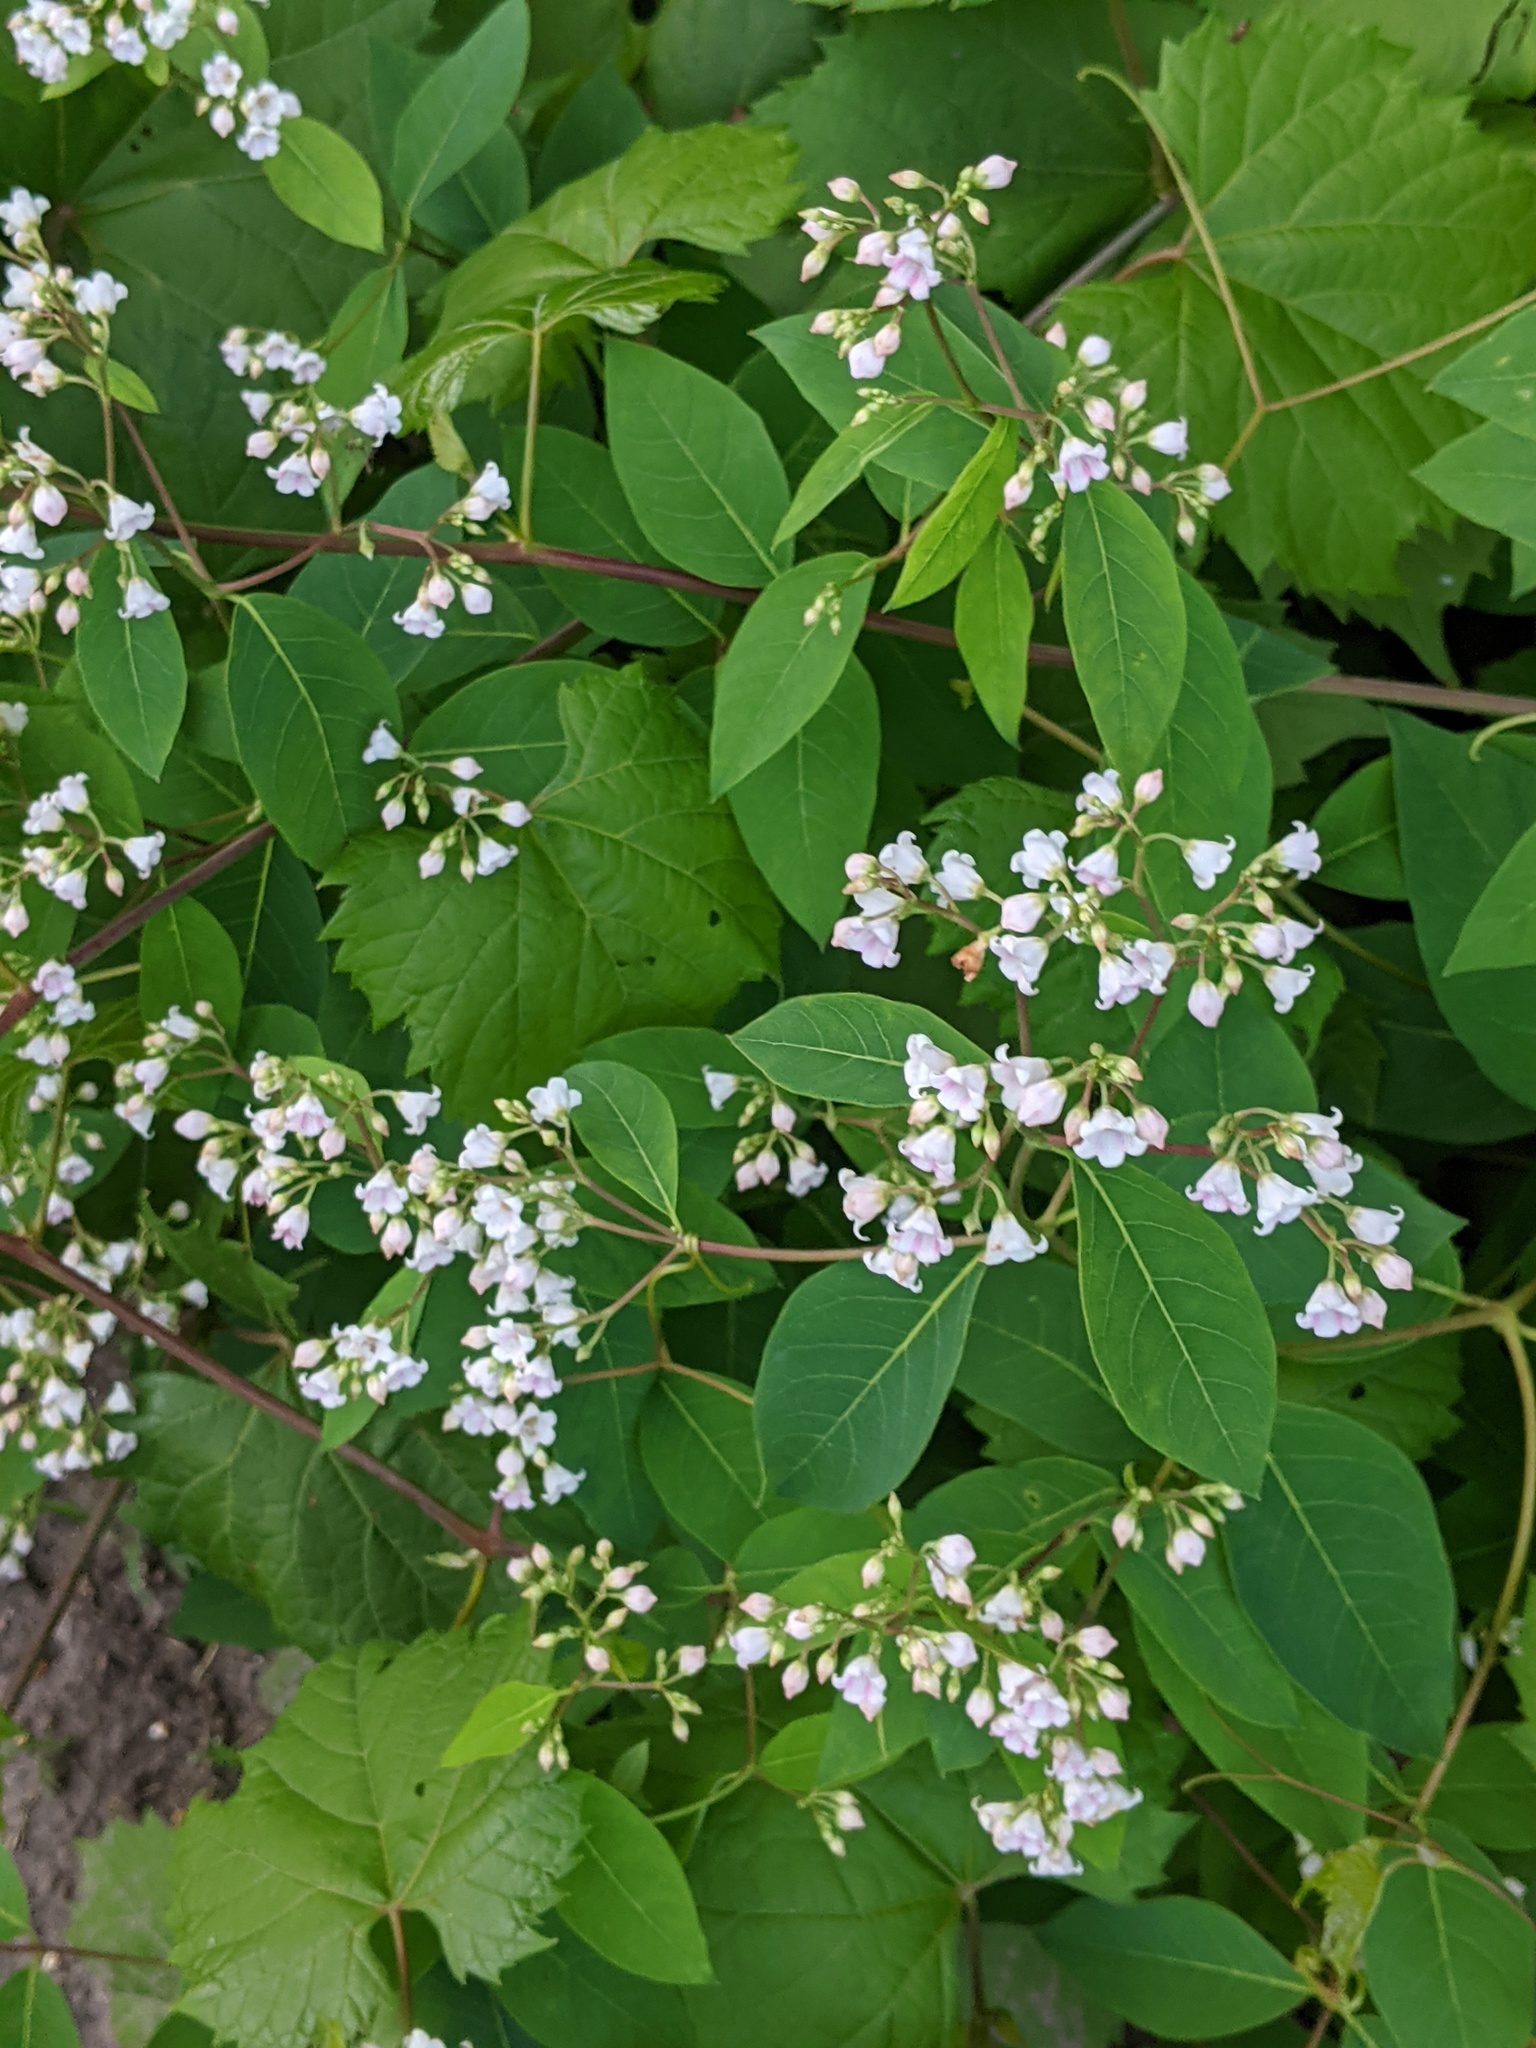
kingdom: Plantae
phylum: Tracheophyta
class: Magnoliopsida
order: Gentianales
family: Apocynaceae
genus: Apocynum
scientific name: Apocynum androsaemifolium
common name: Spreading dogbane
